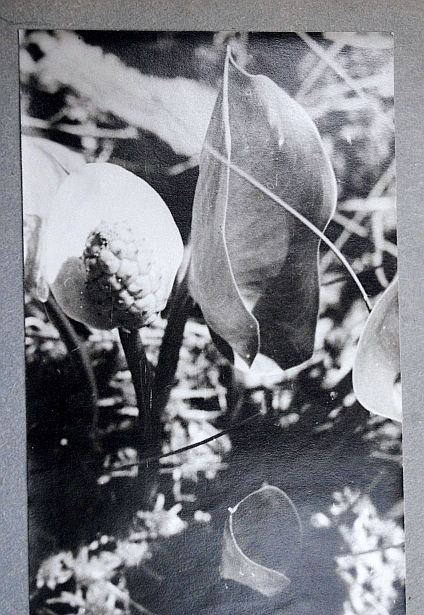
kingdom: Plantae
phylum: Tracheophyta
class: Liliopsida
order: Alismatales
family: Araceae
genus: Calla
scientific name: Calla palustris
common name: Bog arum
